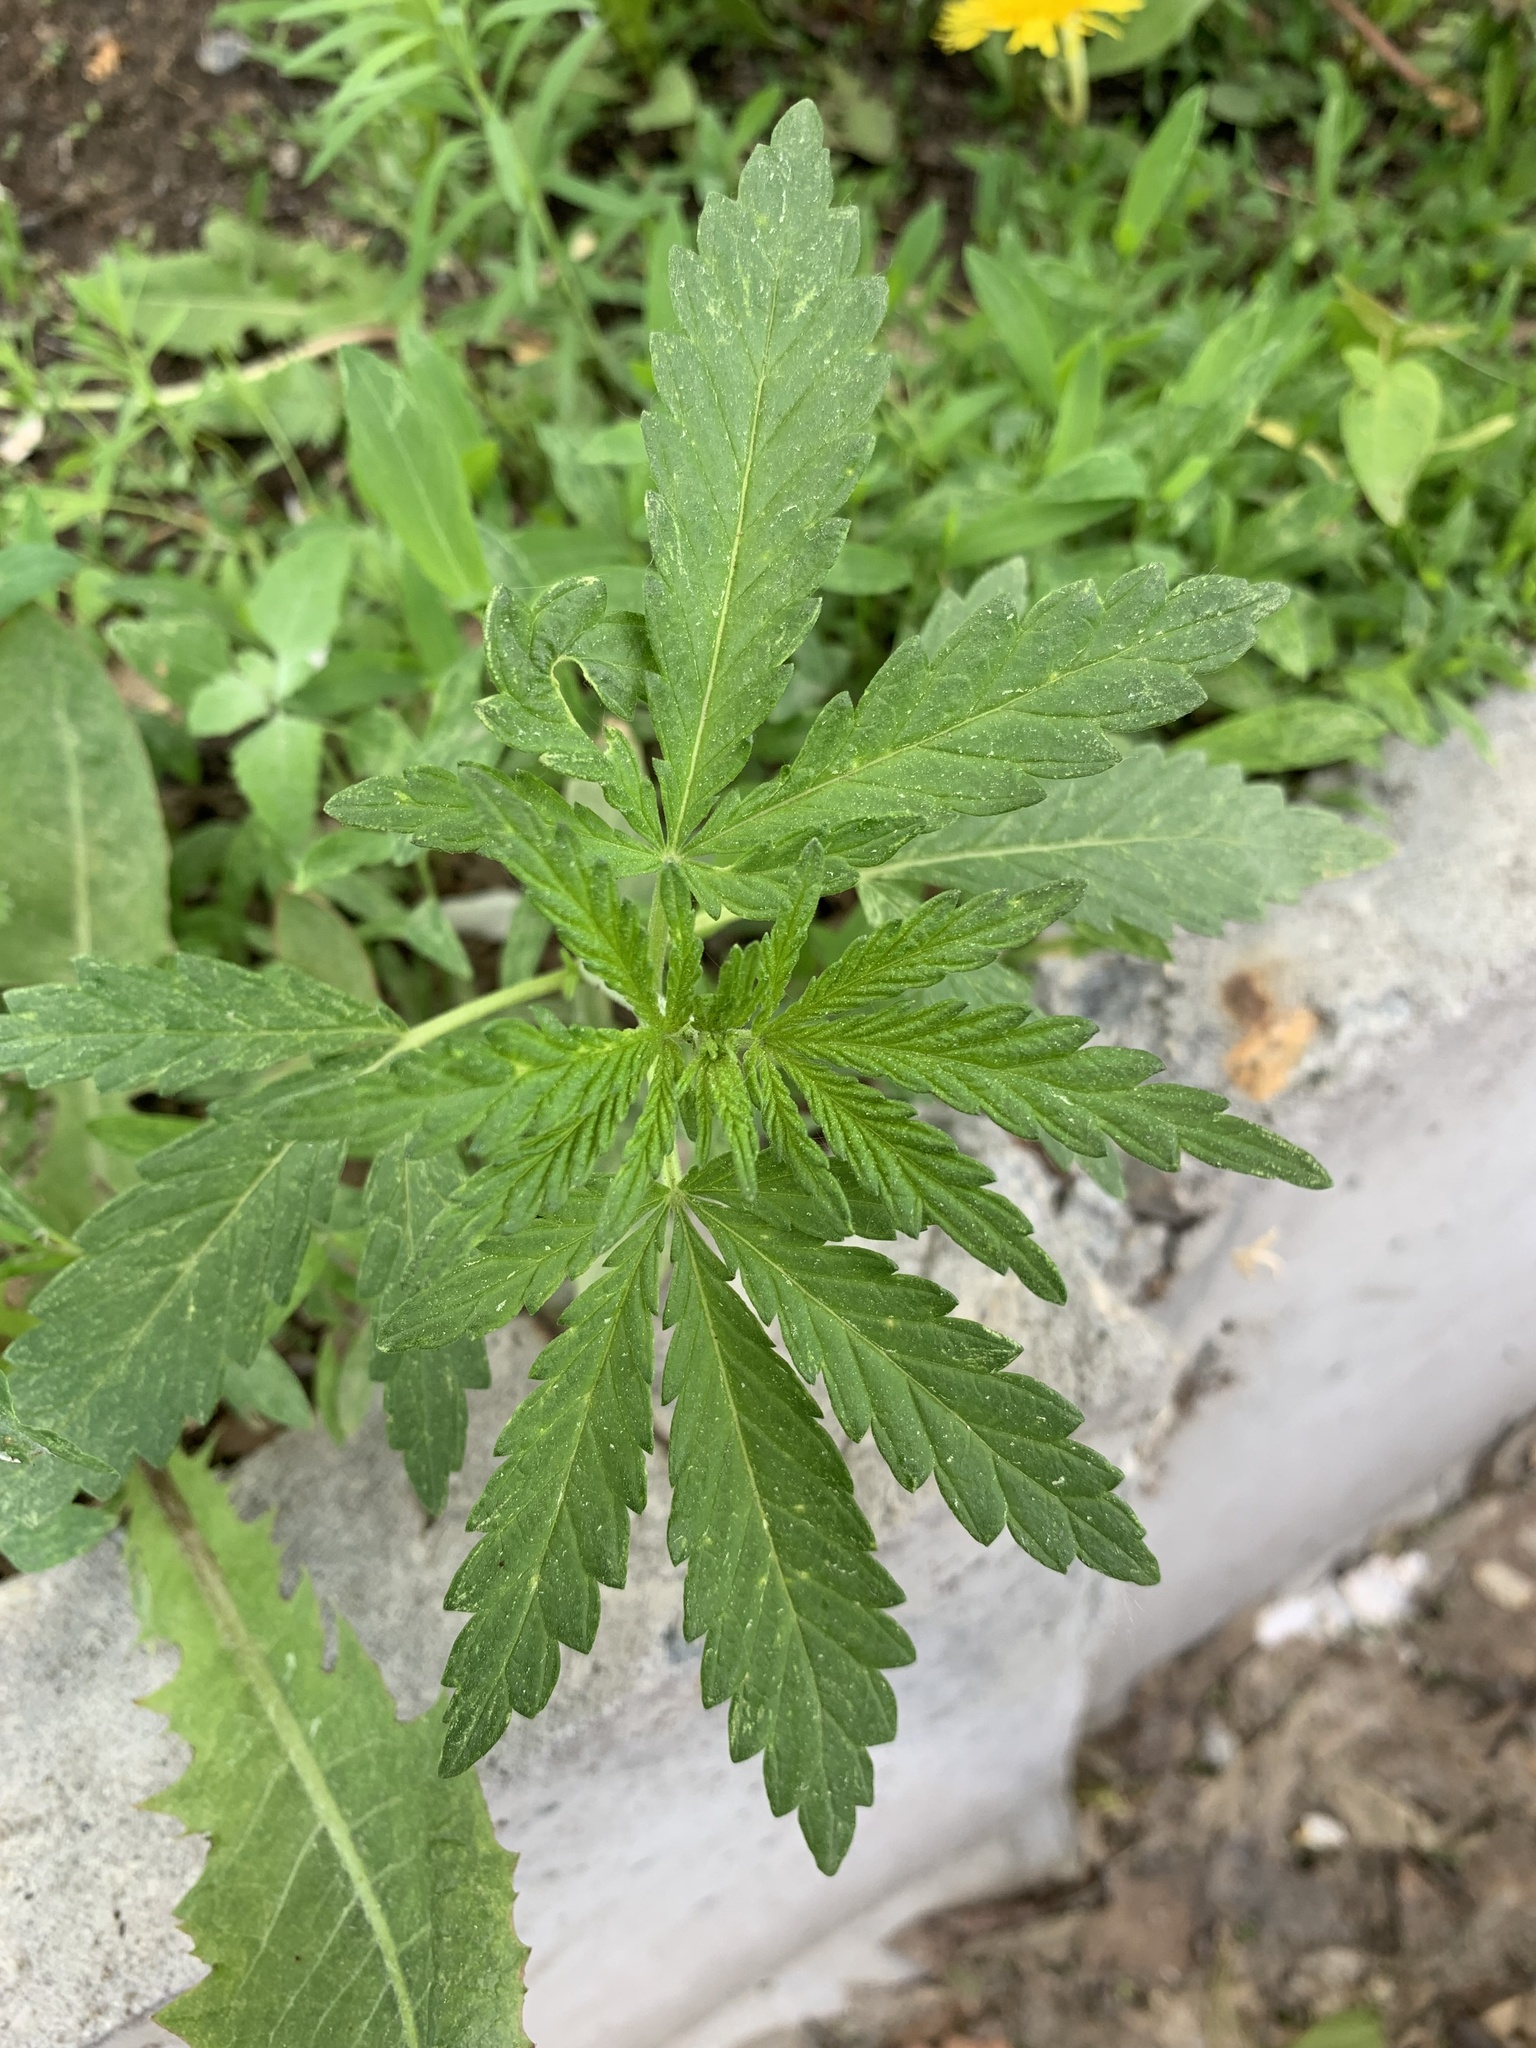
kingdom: Plantae
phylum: Tracheophyta
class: Magnoliopsida
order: Rosales
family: Cannabaceae
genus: Cannabis
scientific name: Cannabis sativa
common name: Hemp
